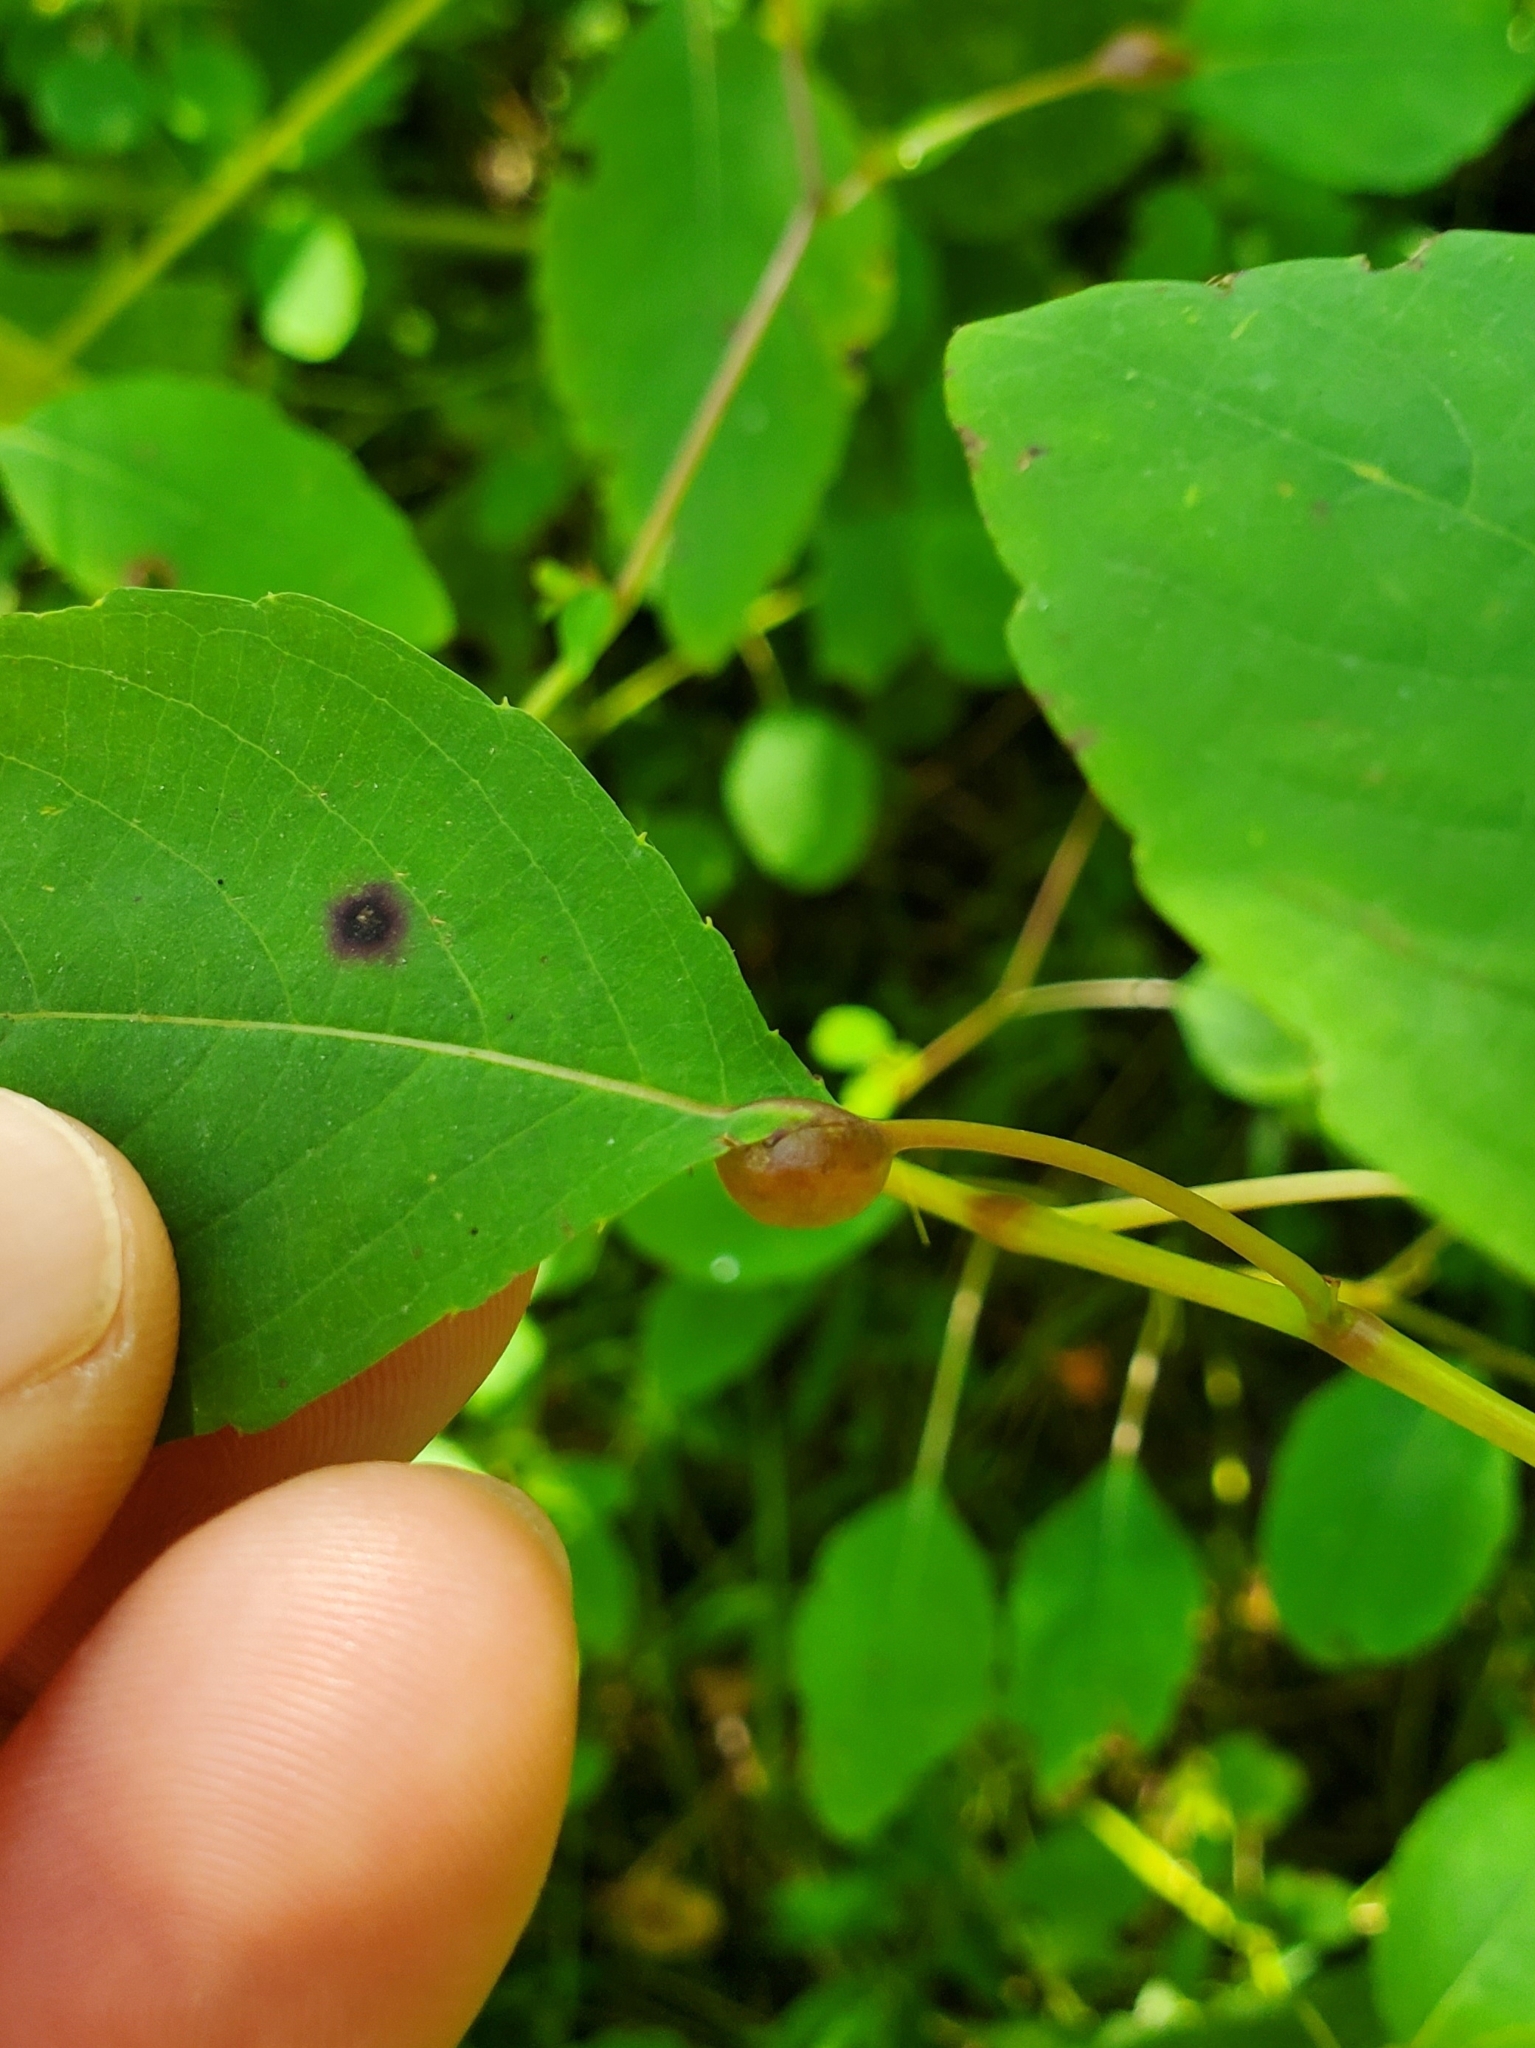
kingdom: Animalia
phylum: Arthropoda
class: Insecta
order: Diptera
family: Cecidomyiidae
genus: Neolasioptera
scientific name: Neolasioptera impatientifolia
